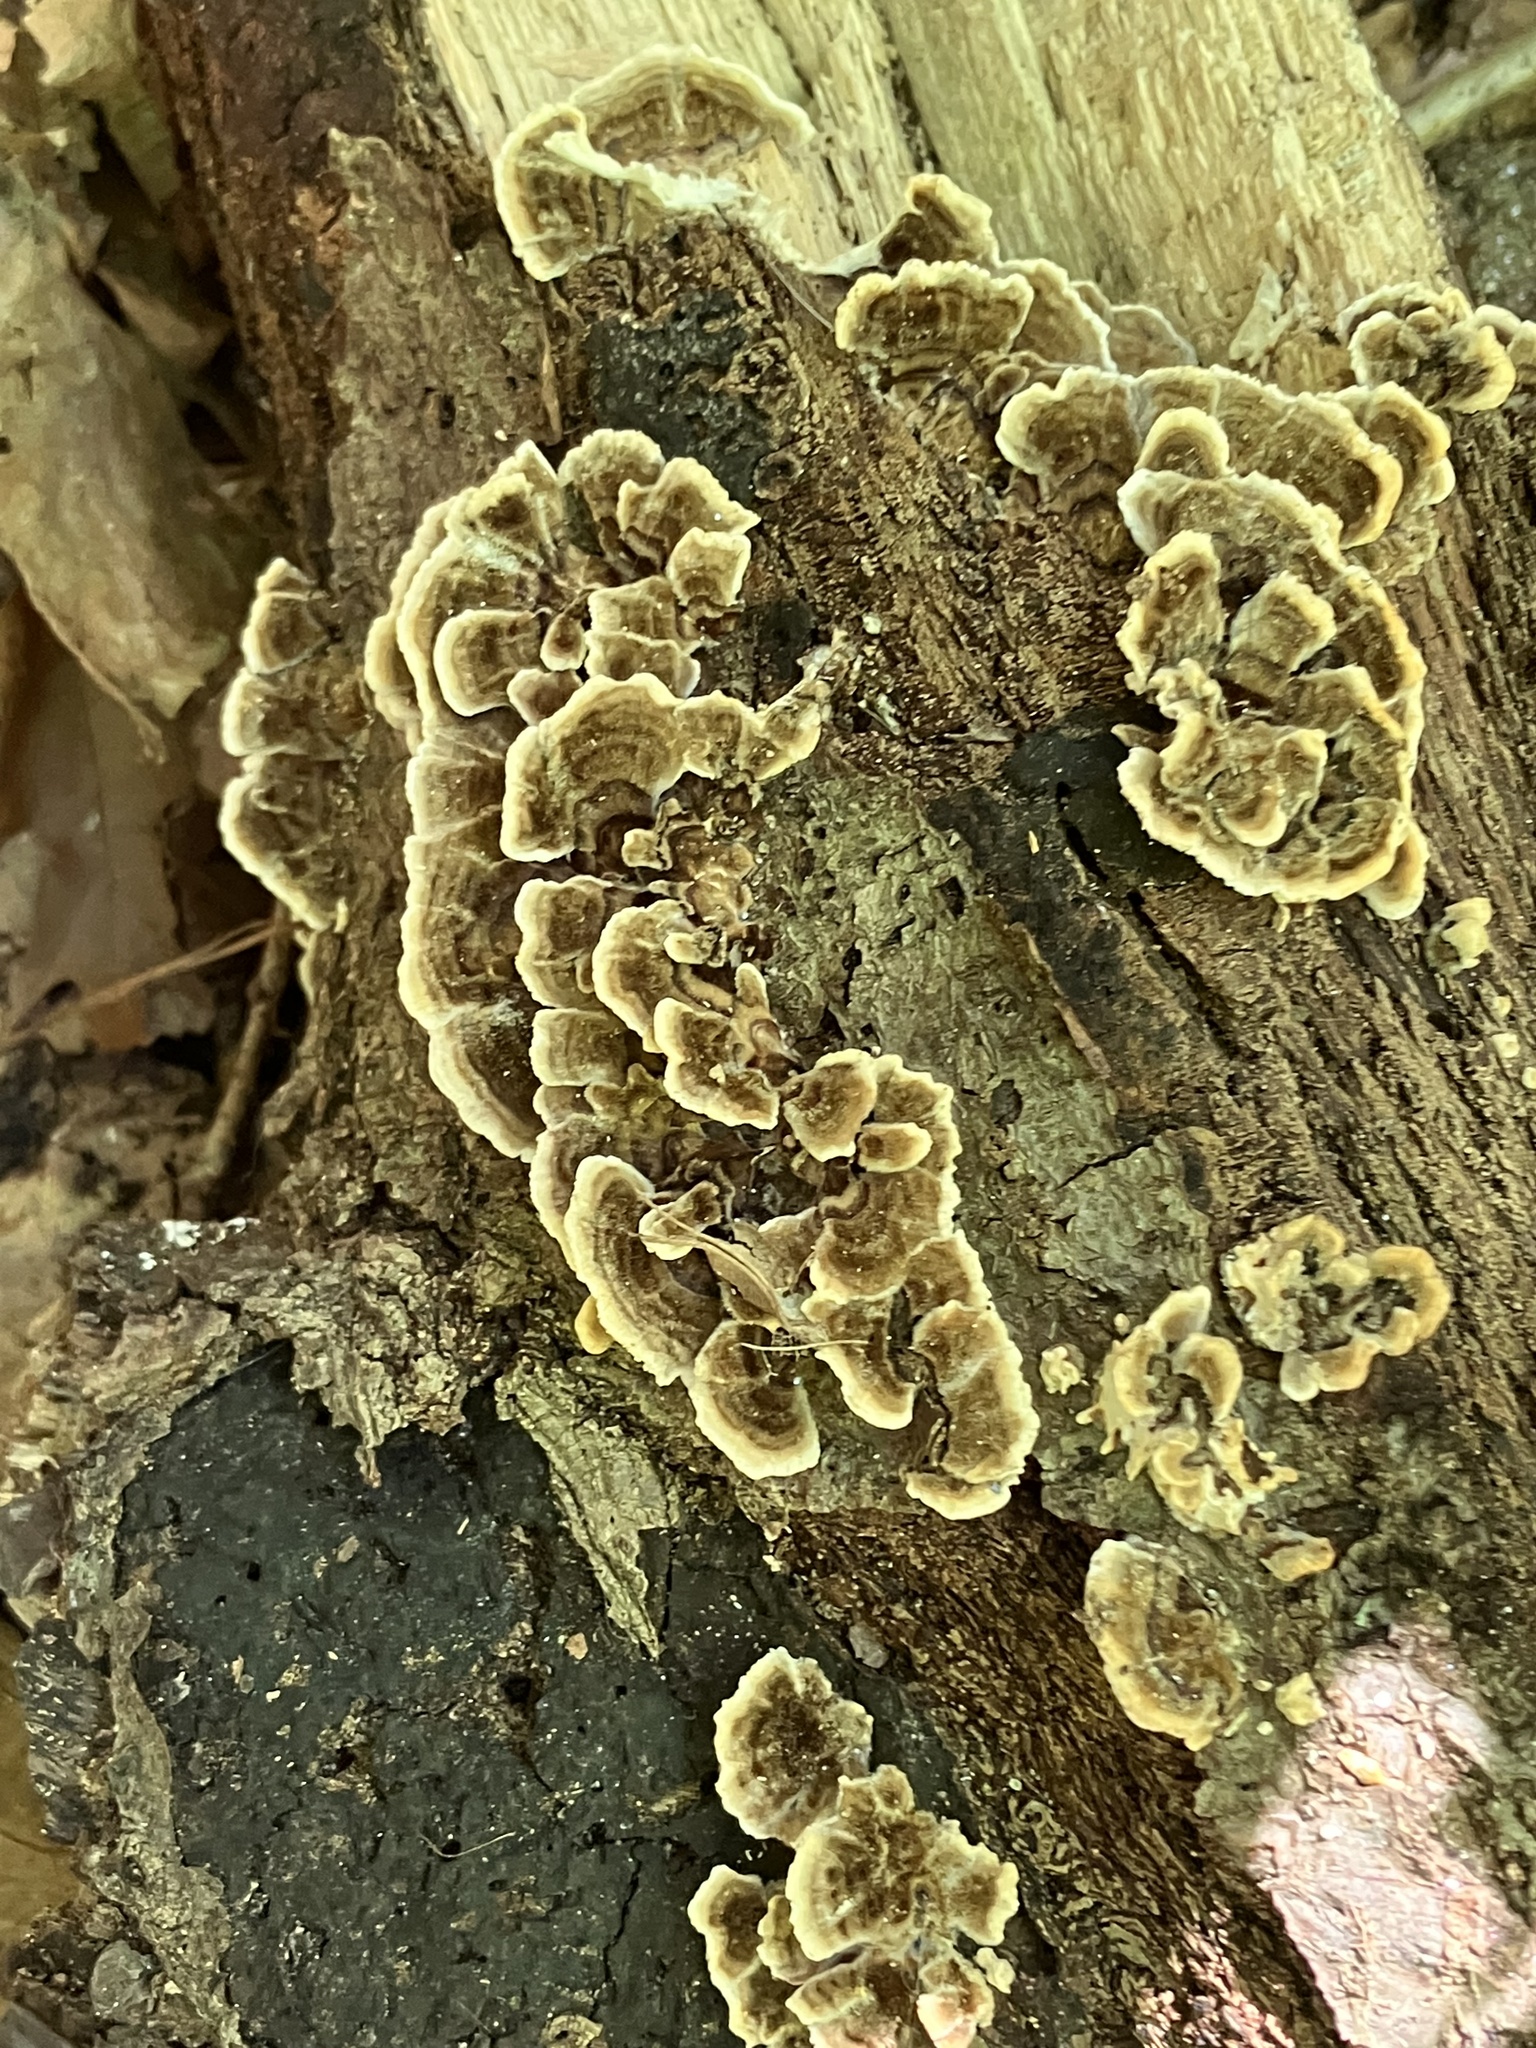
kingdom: Fungi
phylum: Basidiomycota
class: Agaricomycetes
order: Polyporales
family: Polyporaceae
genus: Trametes
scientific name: Trametes versicolor
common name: Turkeytail
